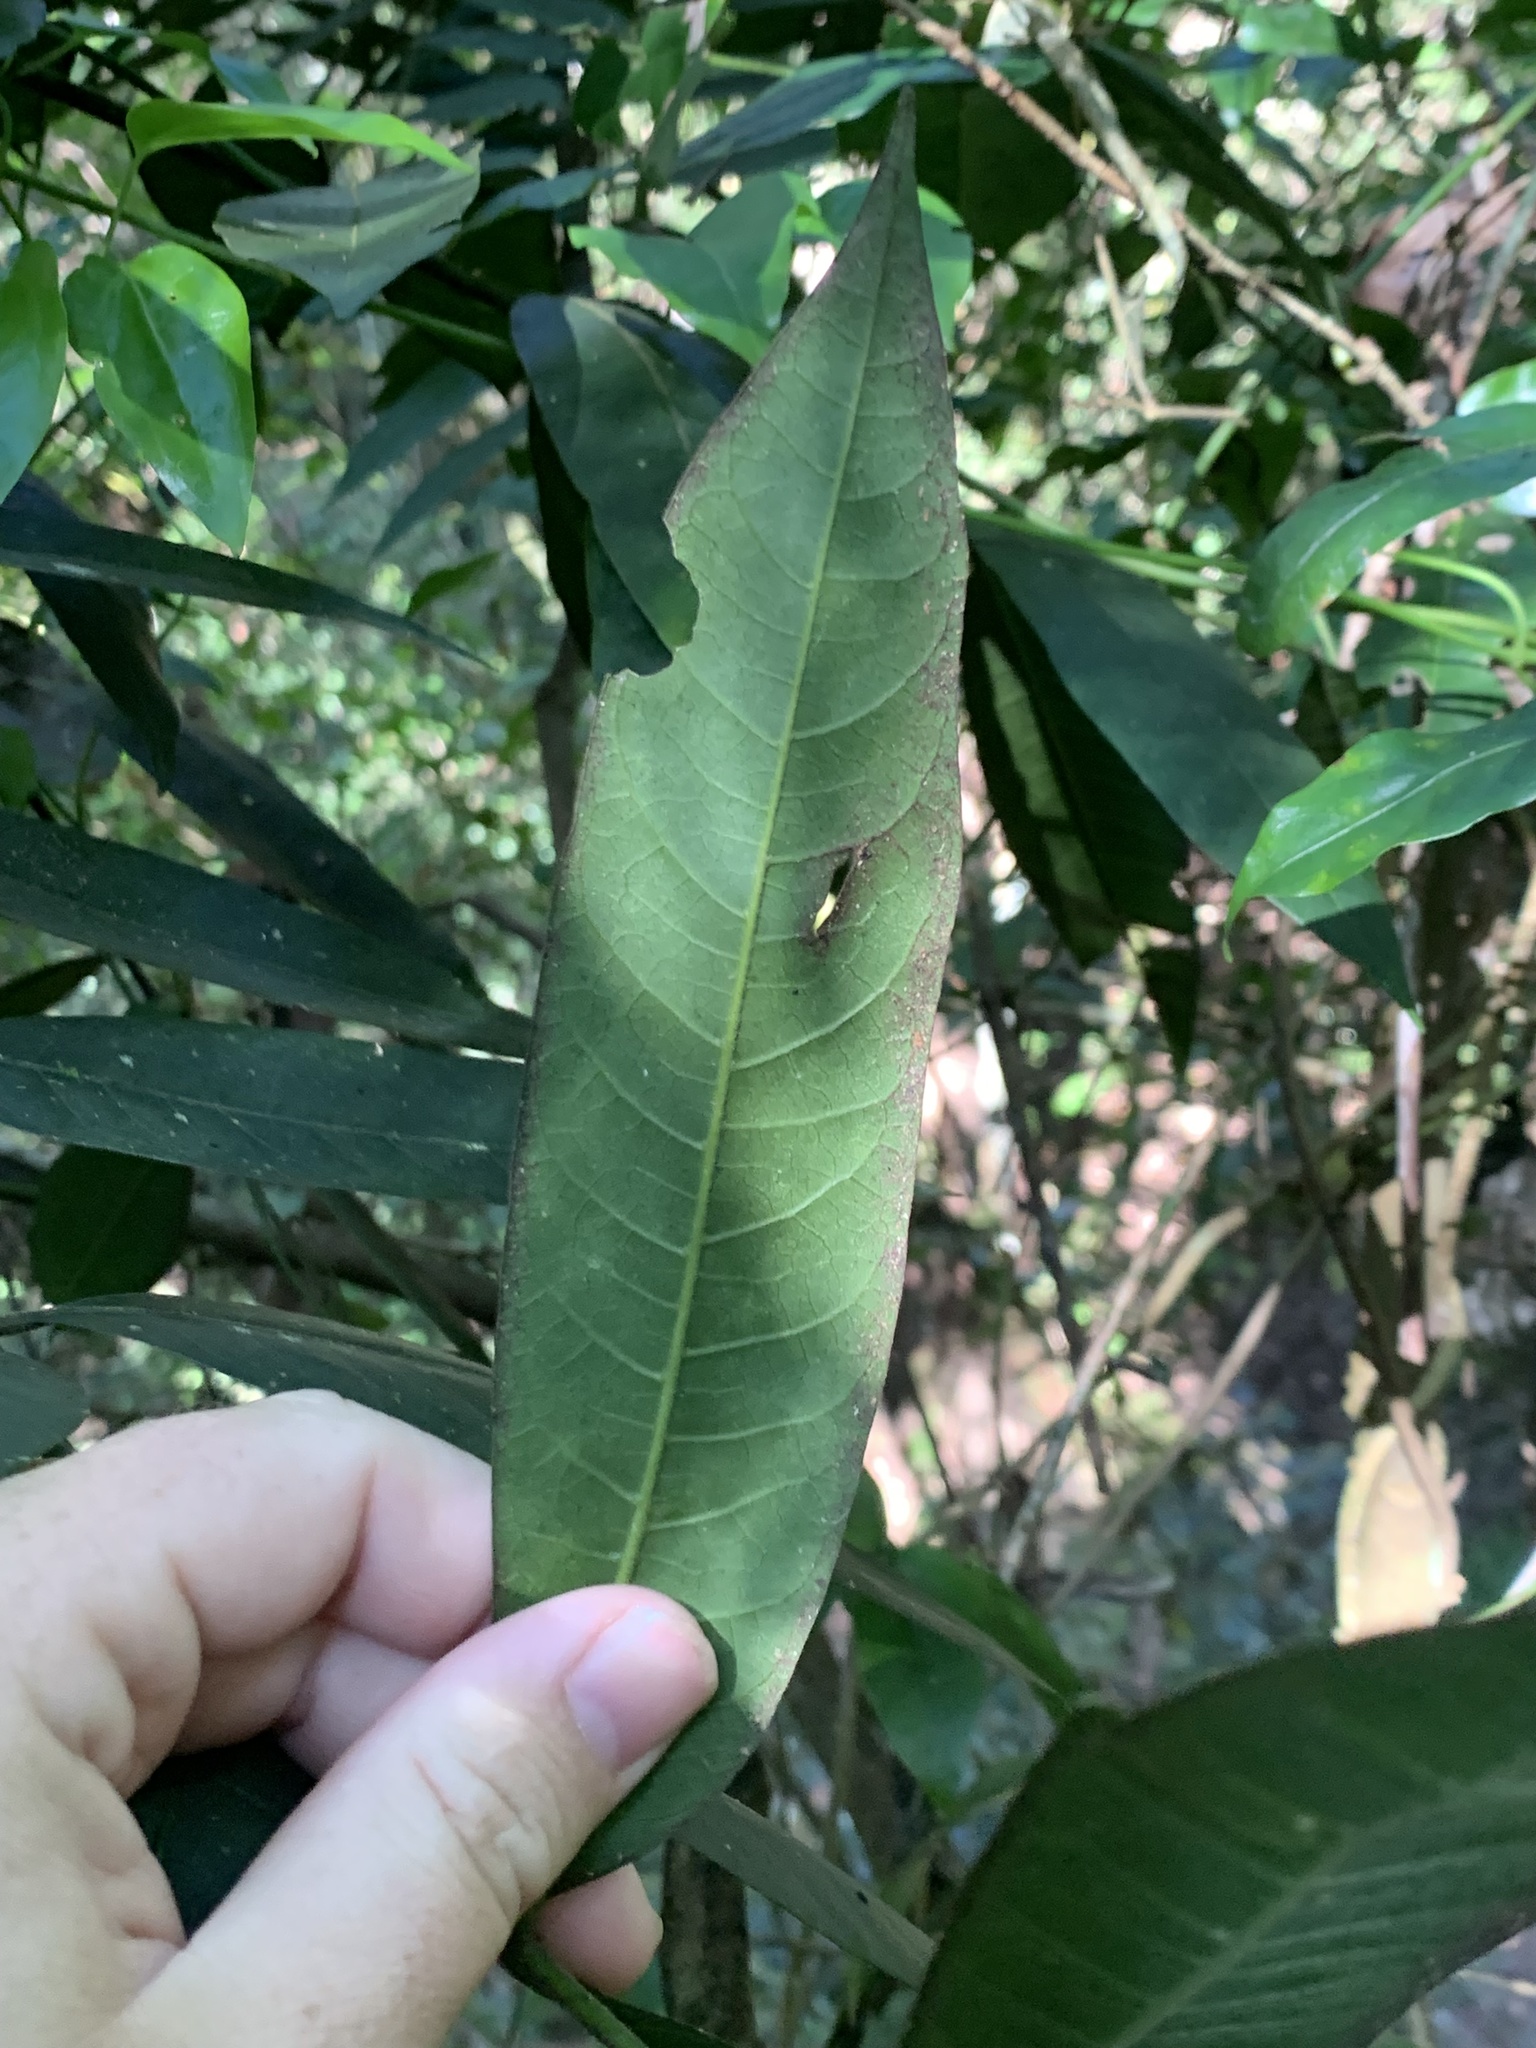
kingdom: Plantae
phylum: Tracheophyta
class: Magnoliopsida
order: Sapindales
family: Meliaceae
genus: Didymocheton
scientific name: Didymocheton rufus
